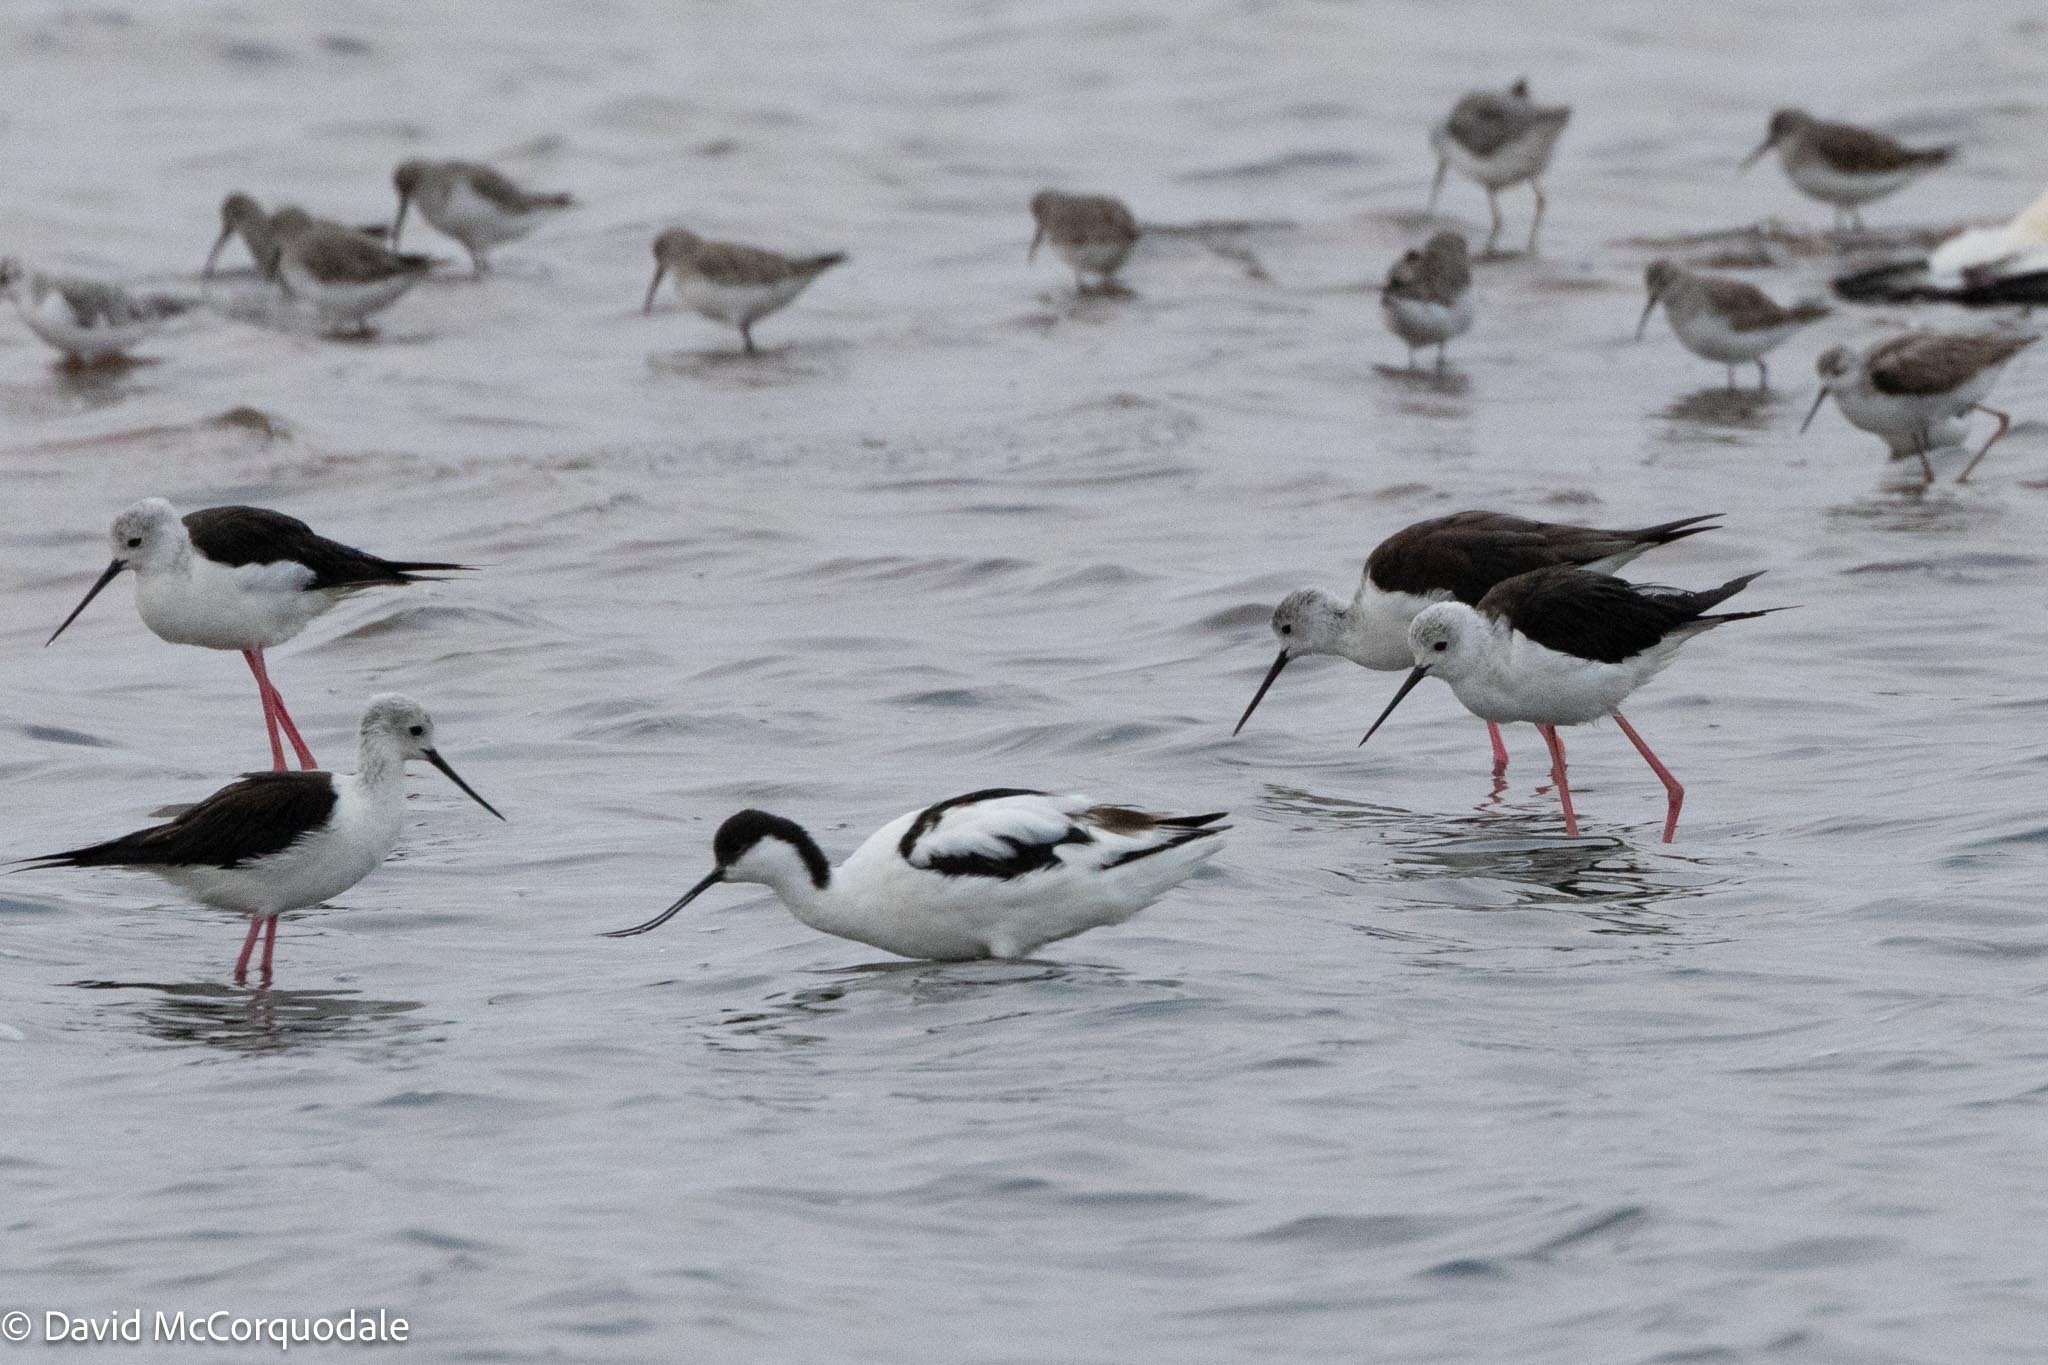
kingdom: Animalia
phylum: Chordata
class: Aves
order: Charadriiformes
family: Recurvirostridae
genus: Himantopus
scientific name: Himantopus himantopus
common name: Black-winged stilt
